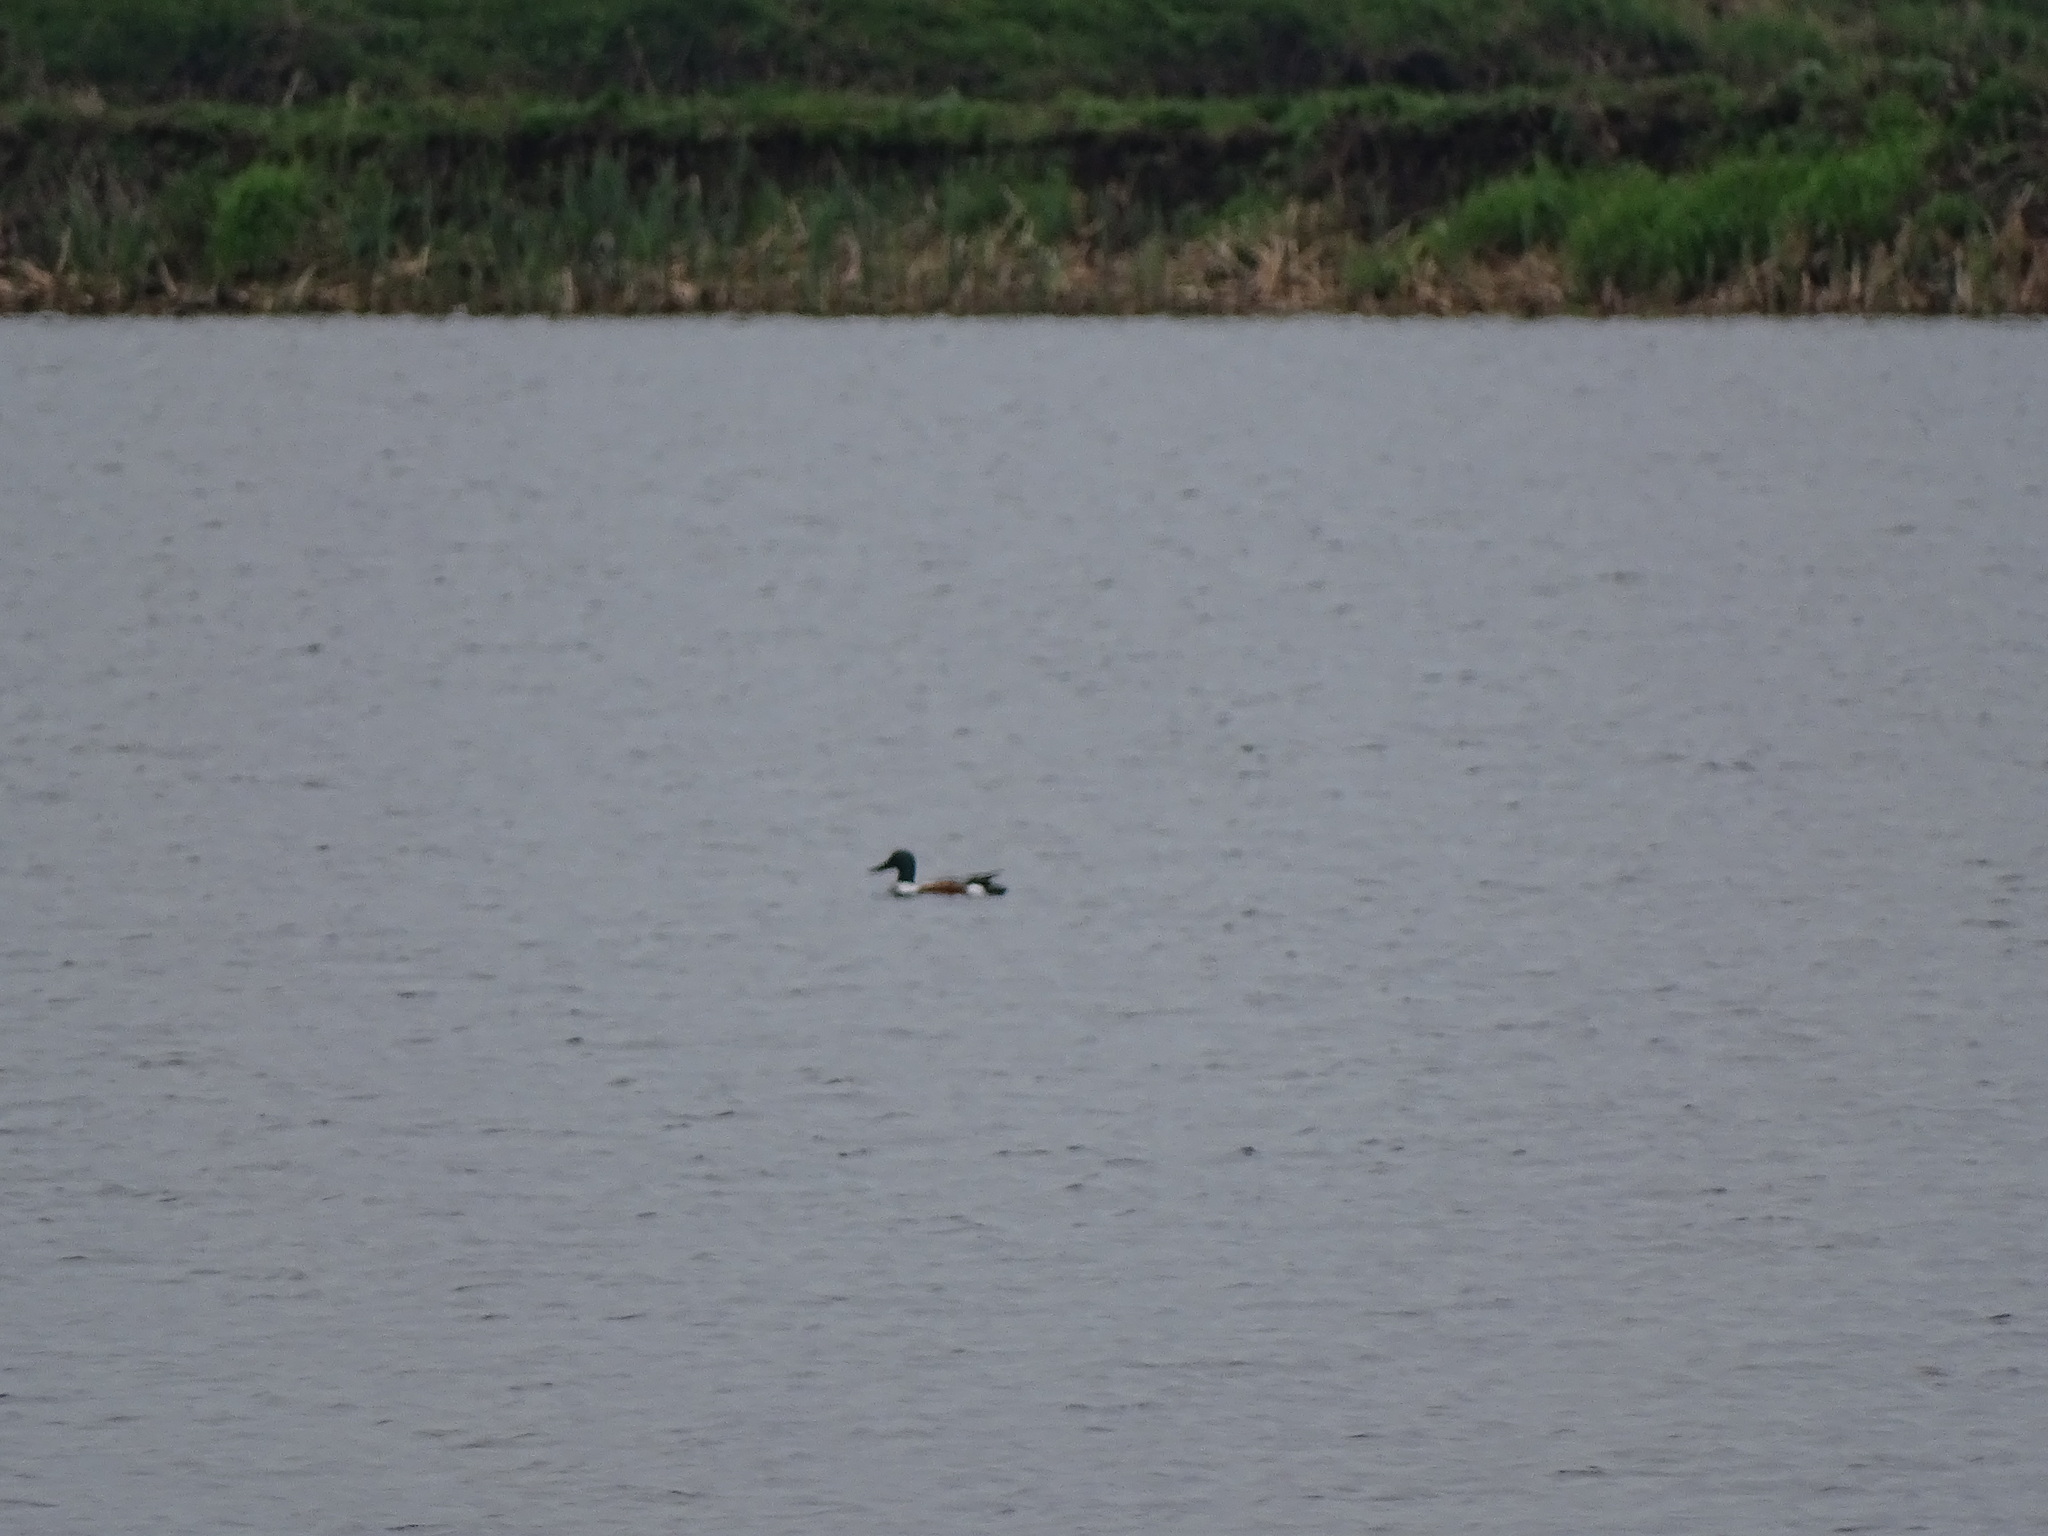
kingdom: Animalia
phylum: Chordata
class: Aves
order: Anseriformes
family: Anatidae
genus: Spatula
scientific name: Spatula clypeata
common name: Northern shoveler
